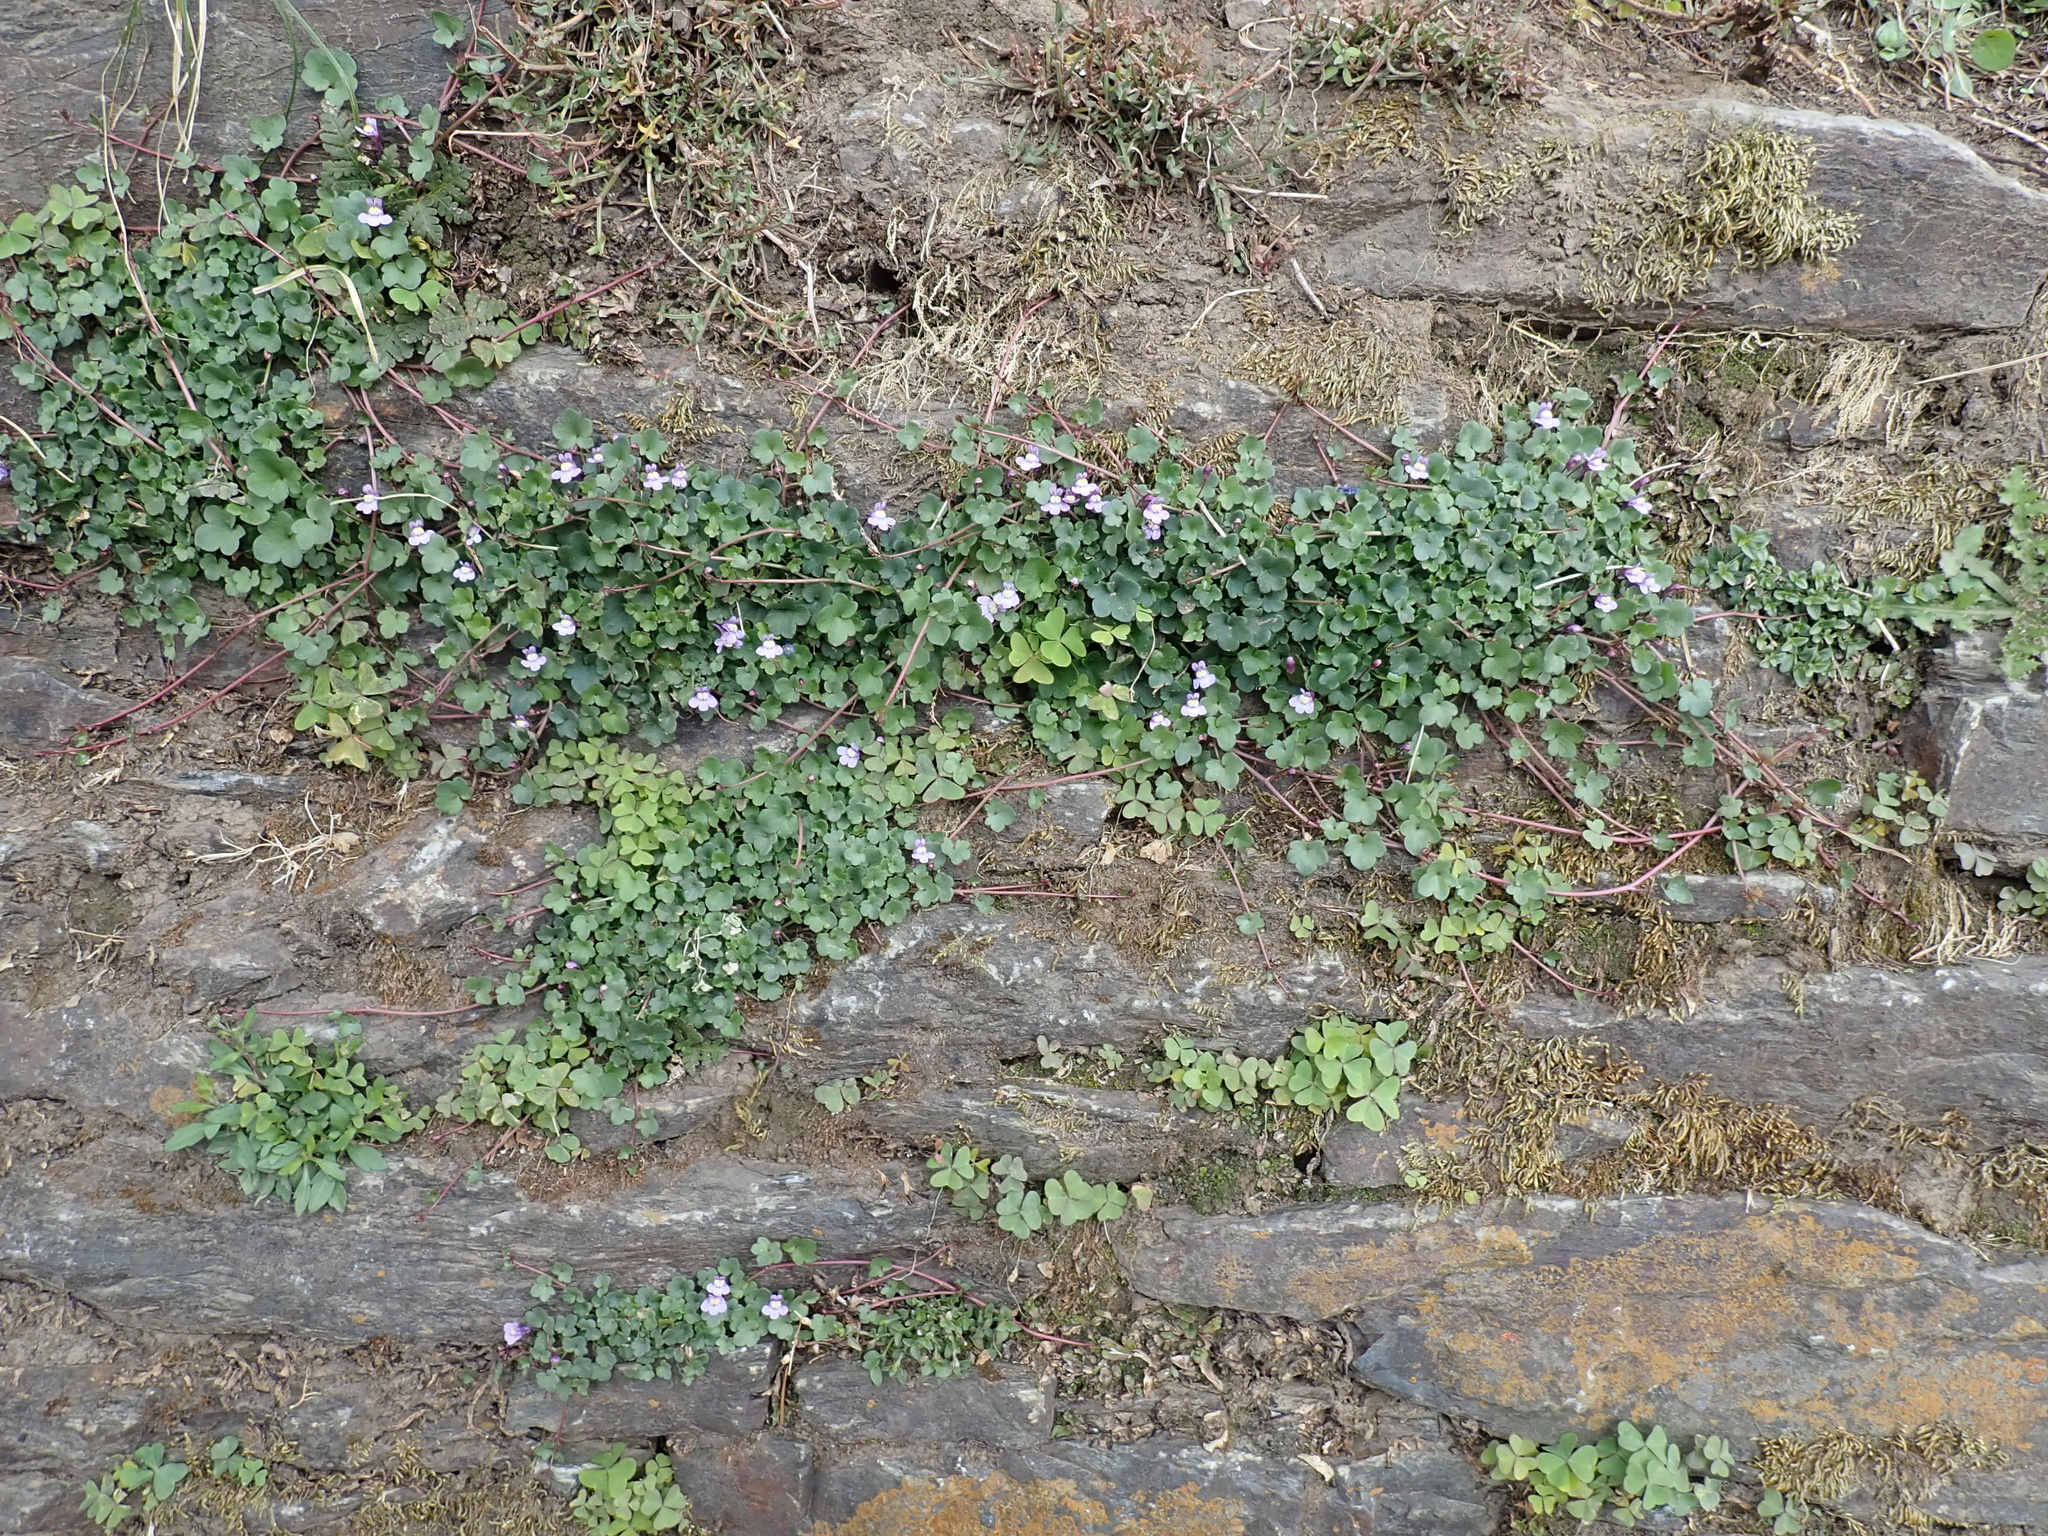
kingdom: Plantae
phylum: Tracheophyta
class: Magnoliopsida
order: Lamiales
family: Plantaginaceae
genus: Cymbalaria
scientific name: Cymbalaria muralis
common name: Ivy-leaved toadflax
